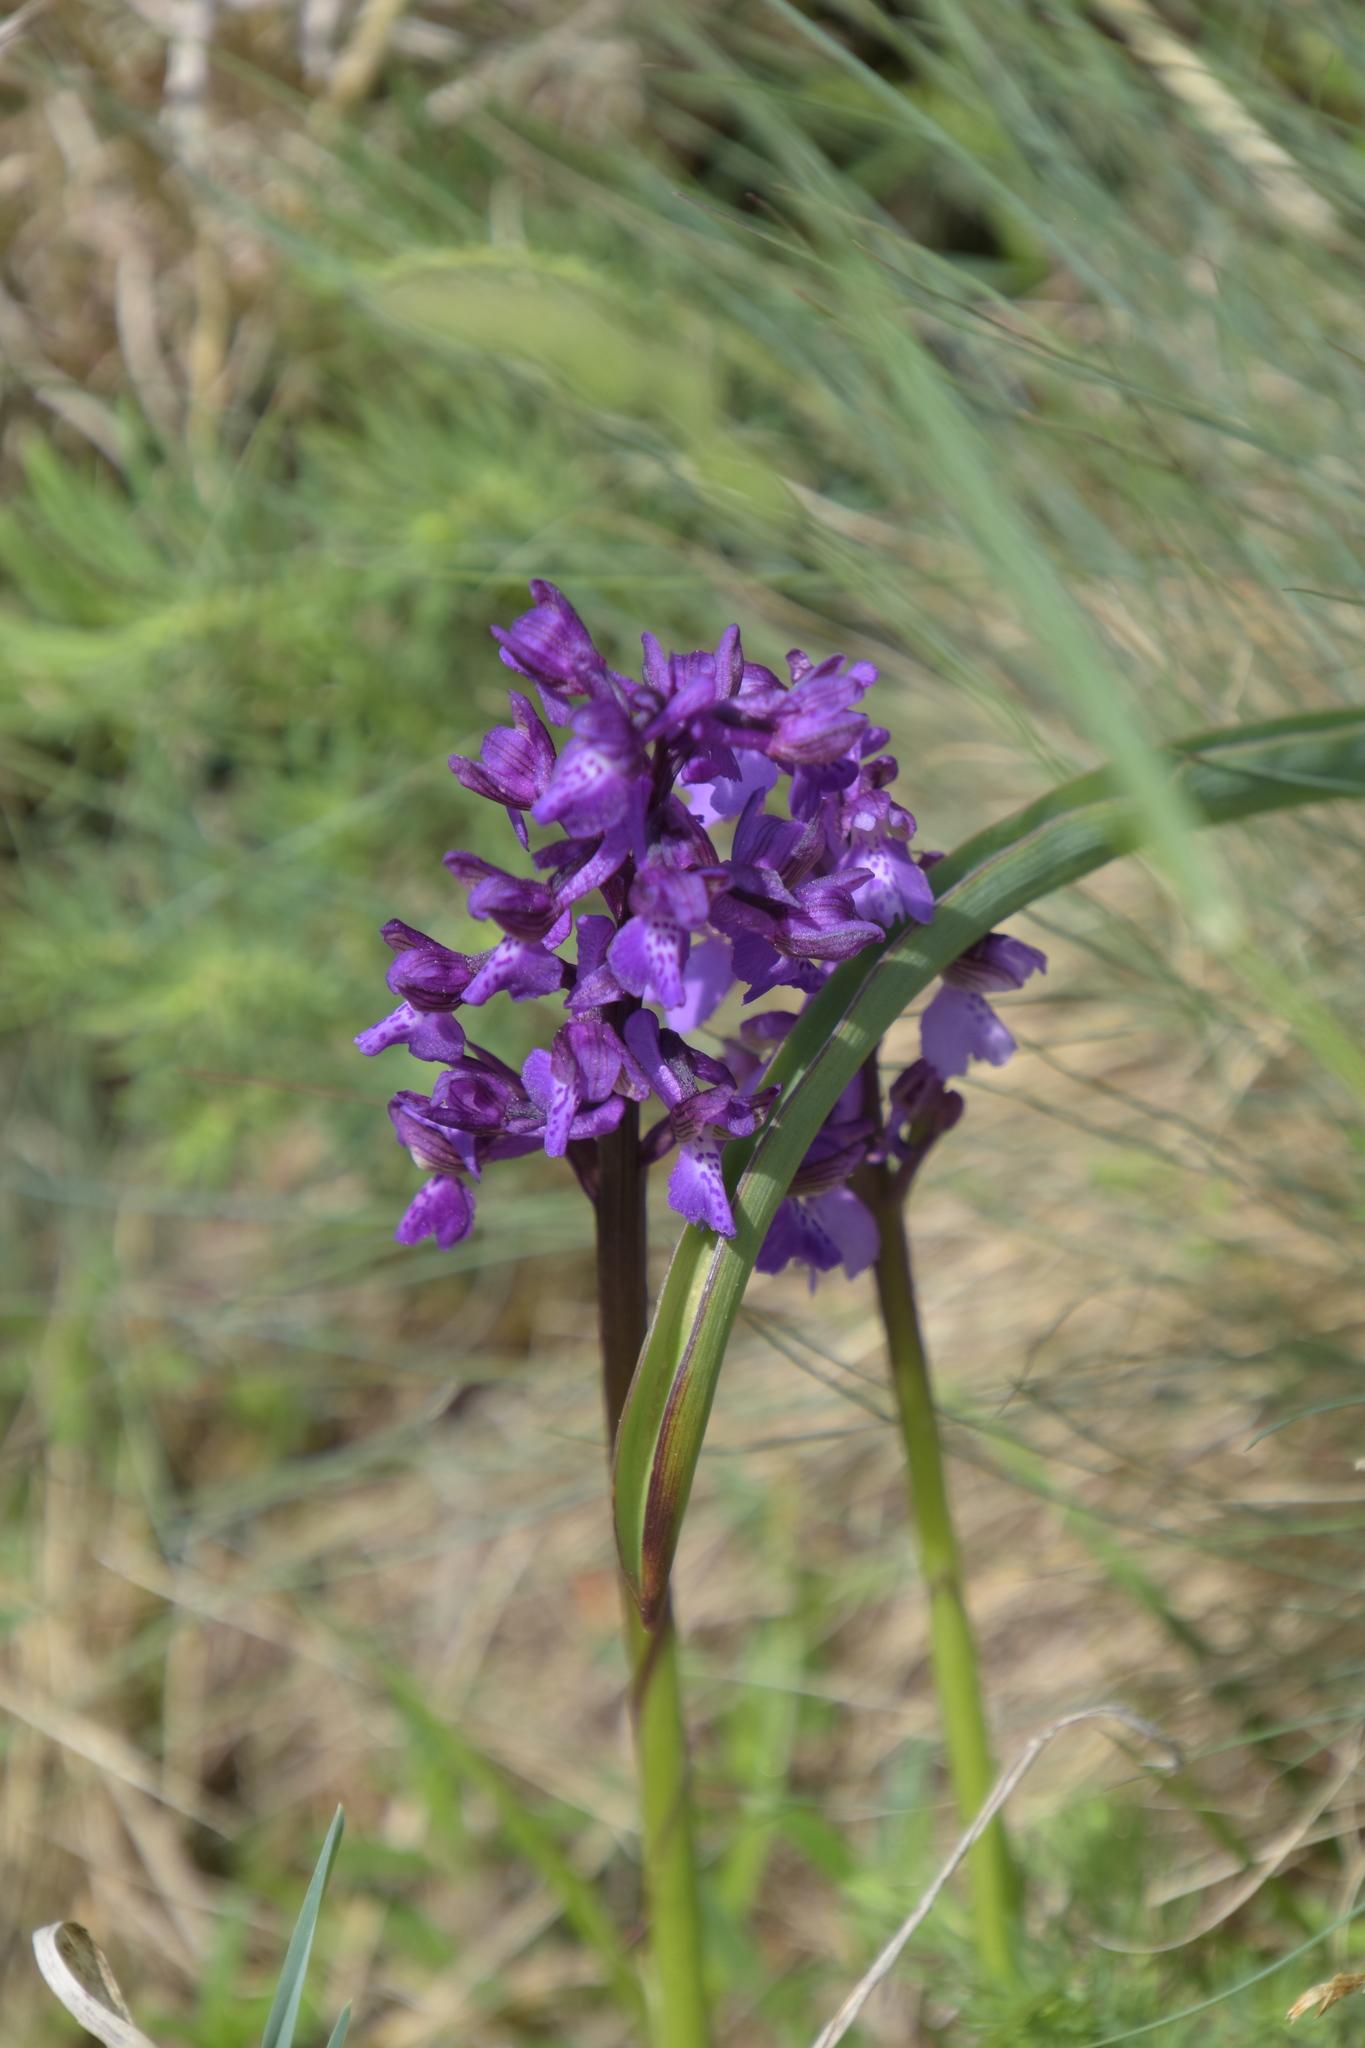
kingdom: Plantae
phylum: Tracheophyta
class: Liliopsida
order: Asparagales
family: Orchidaceae
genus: Anacamptis
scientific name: Anacamptis morio
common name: Green-winged orchid
